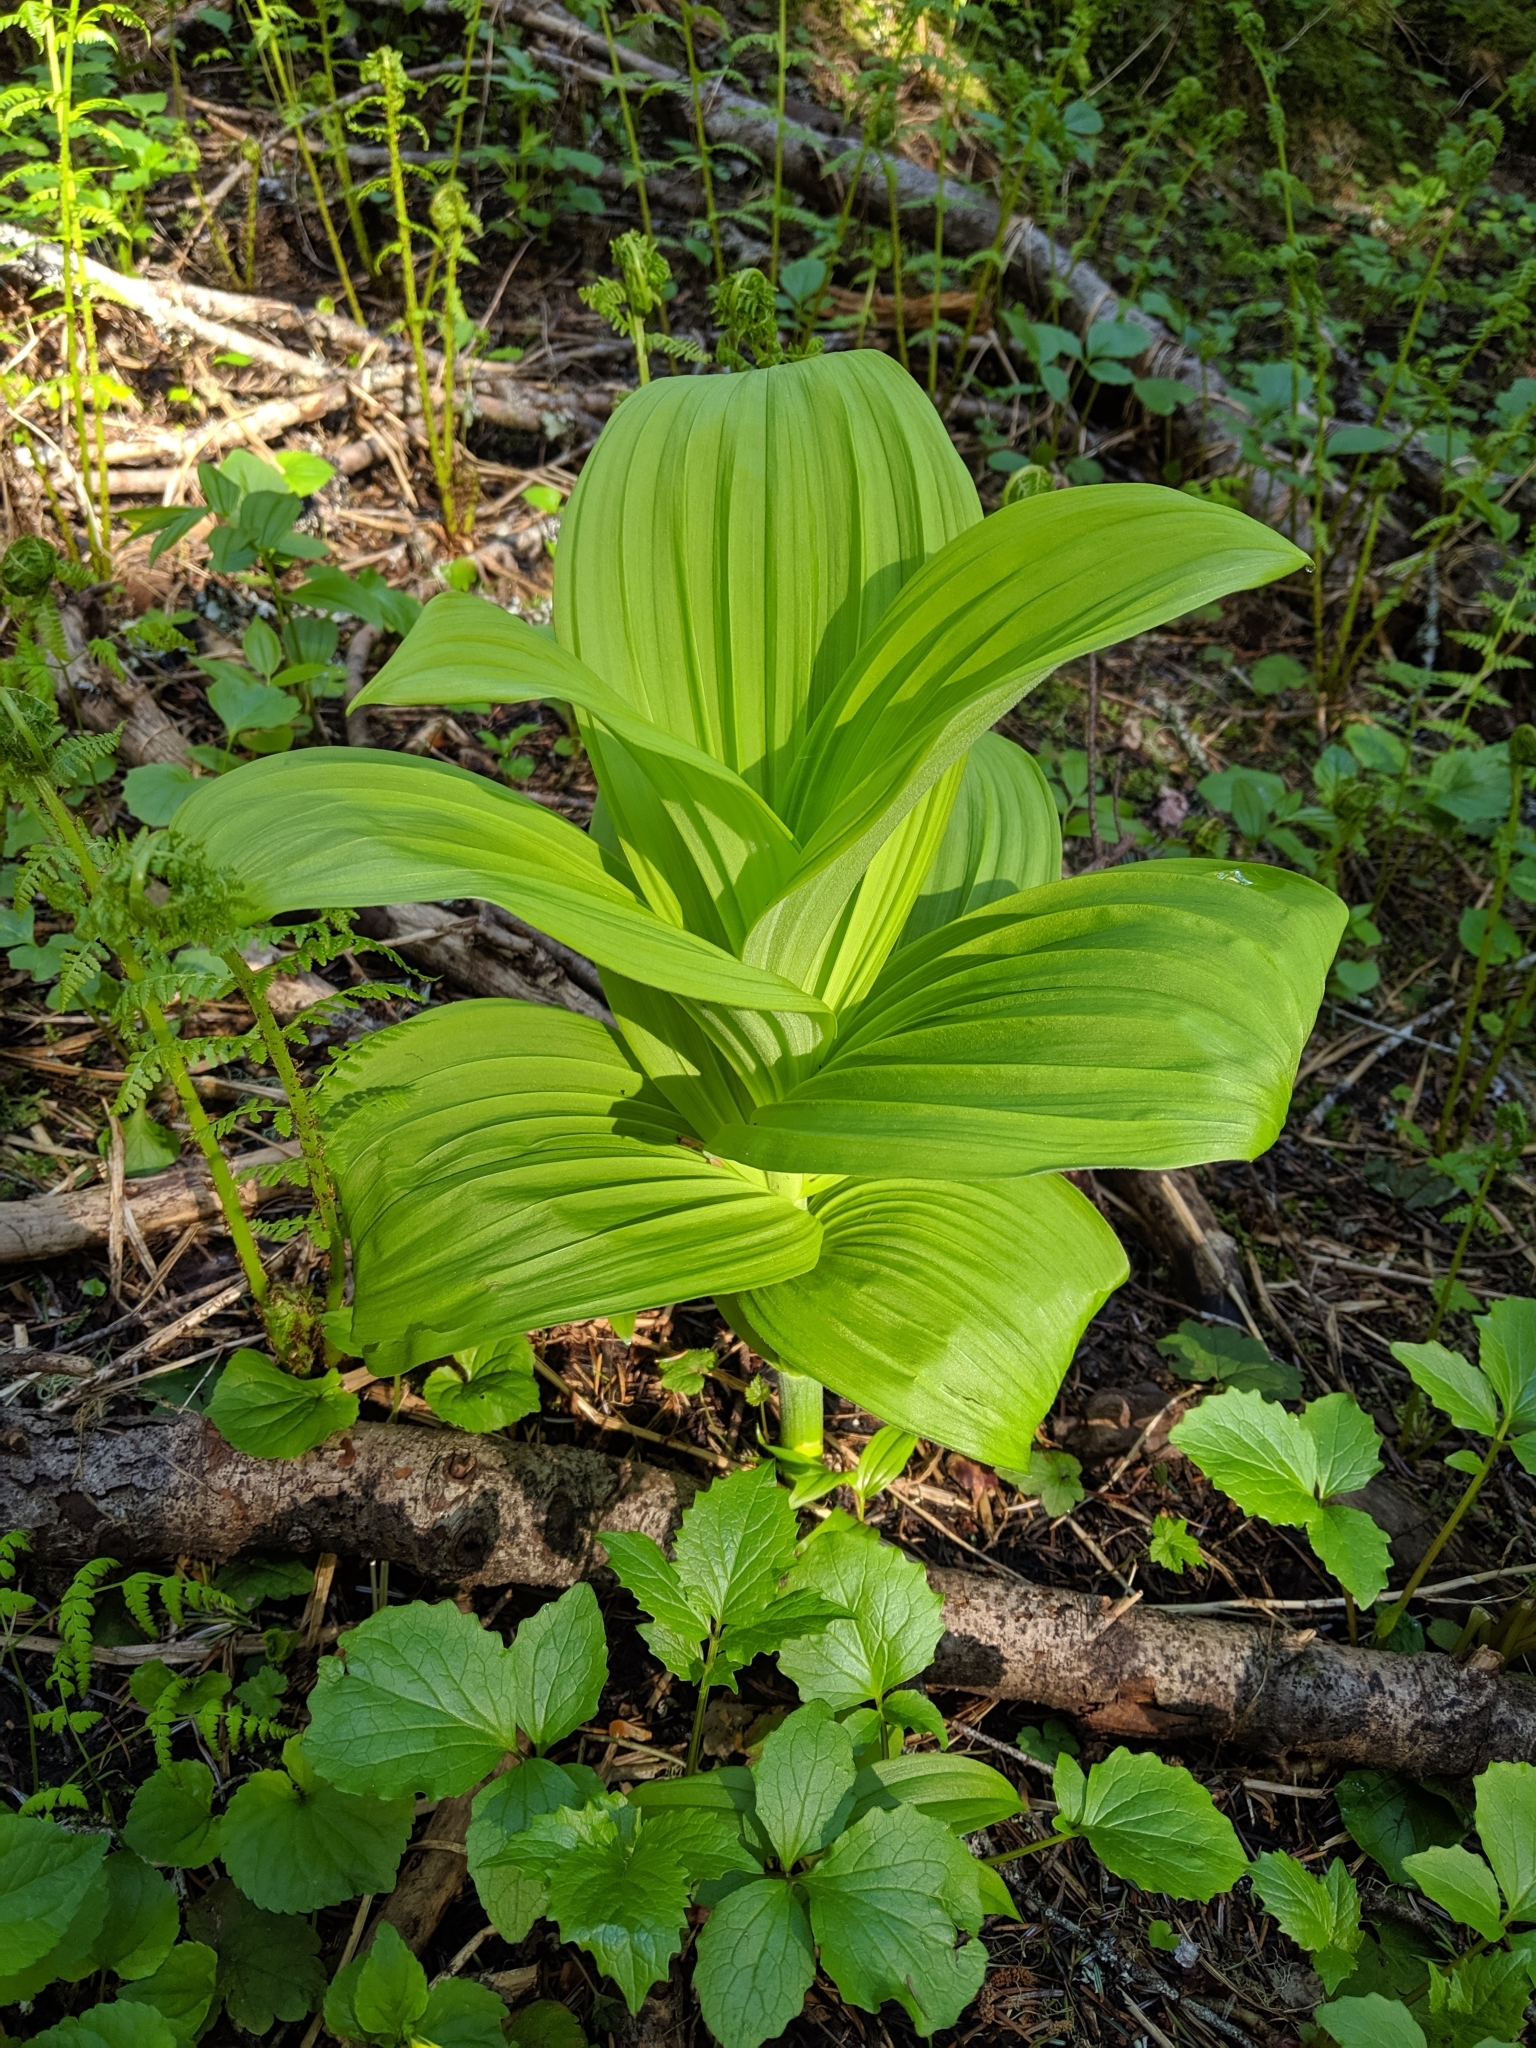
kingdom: Plantae
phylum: Tracheophyta
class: Liliopsida
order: Liliales
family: Melanthiaceae
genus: Veratrum
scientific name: Veratrum viride
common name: American false hellebore
